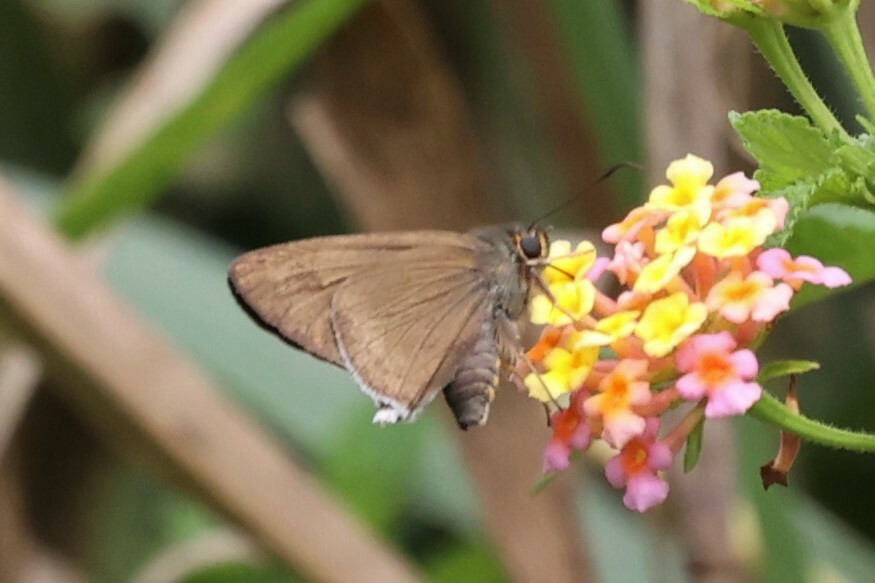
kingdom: Animalia
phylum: Arthropoda
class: Insecta
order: Lepidoptera
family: Hesperiidae
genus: Coeliades
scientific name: Coeliades libeon
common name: Spotless policeman
